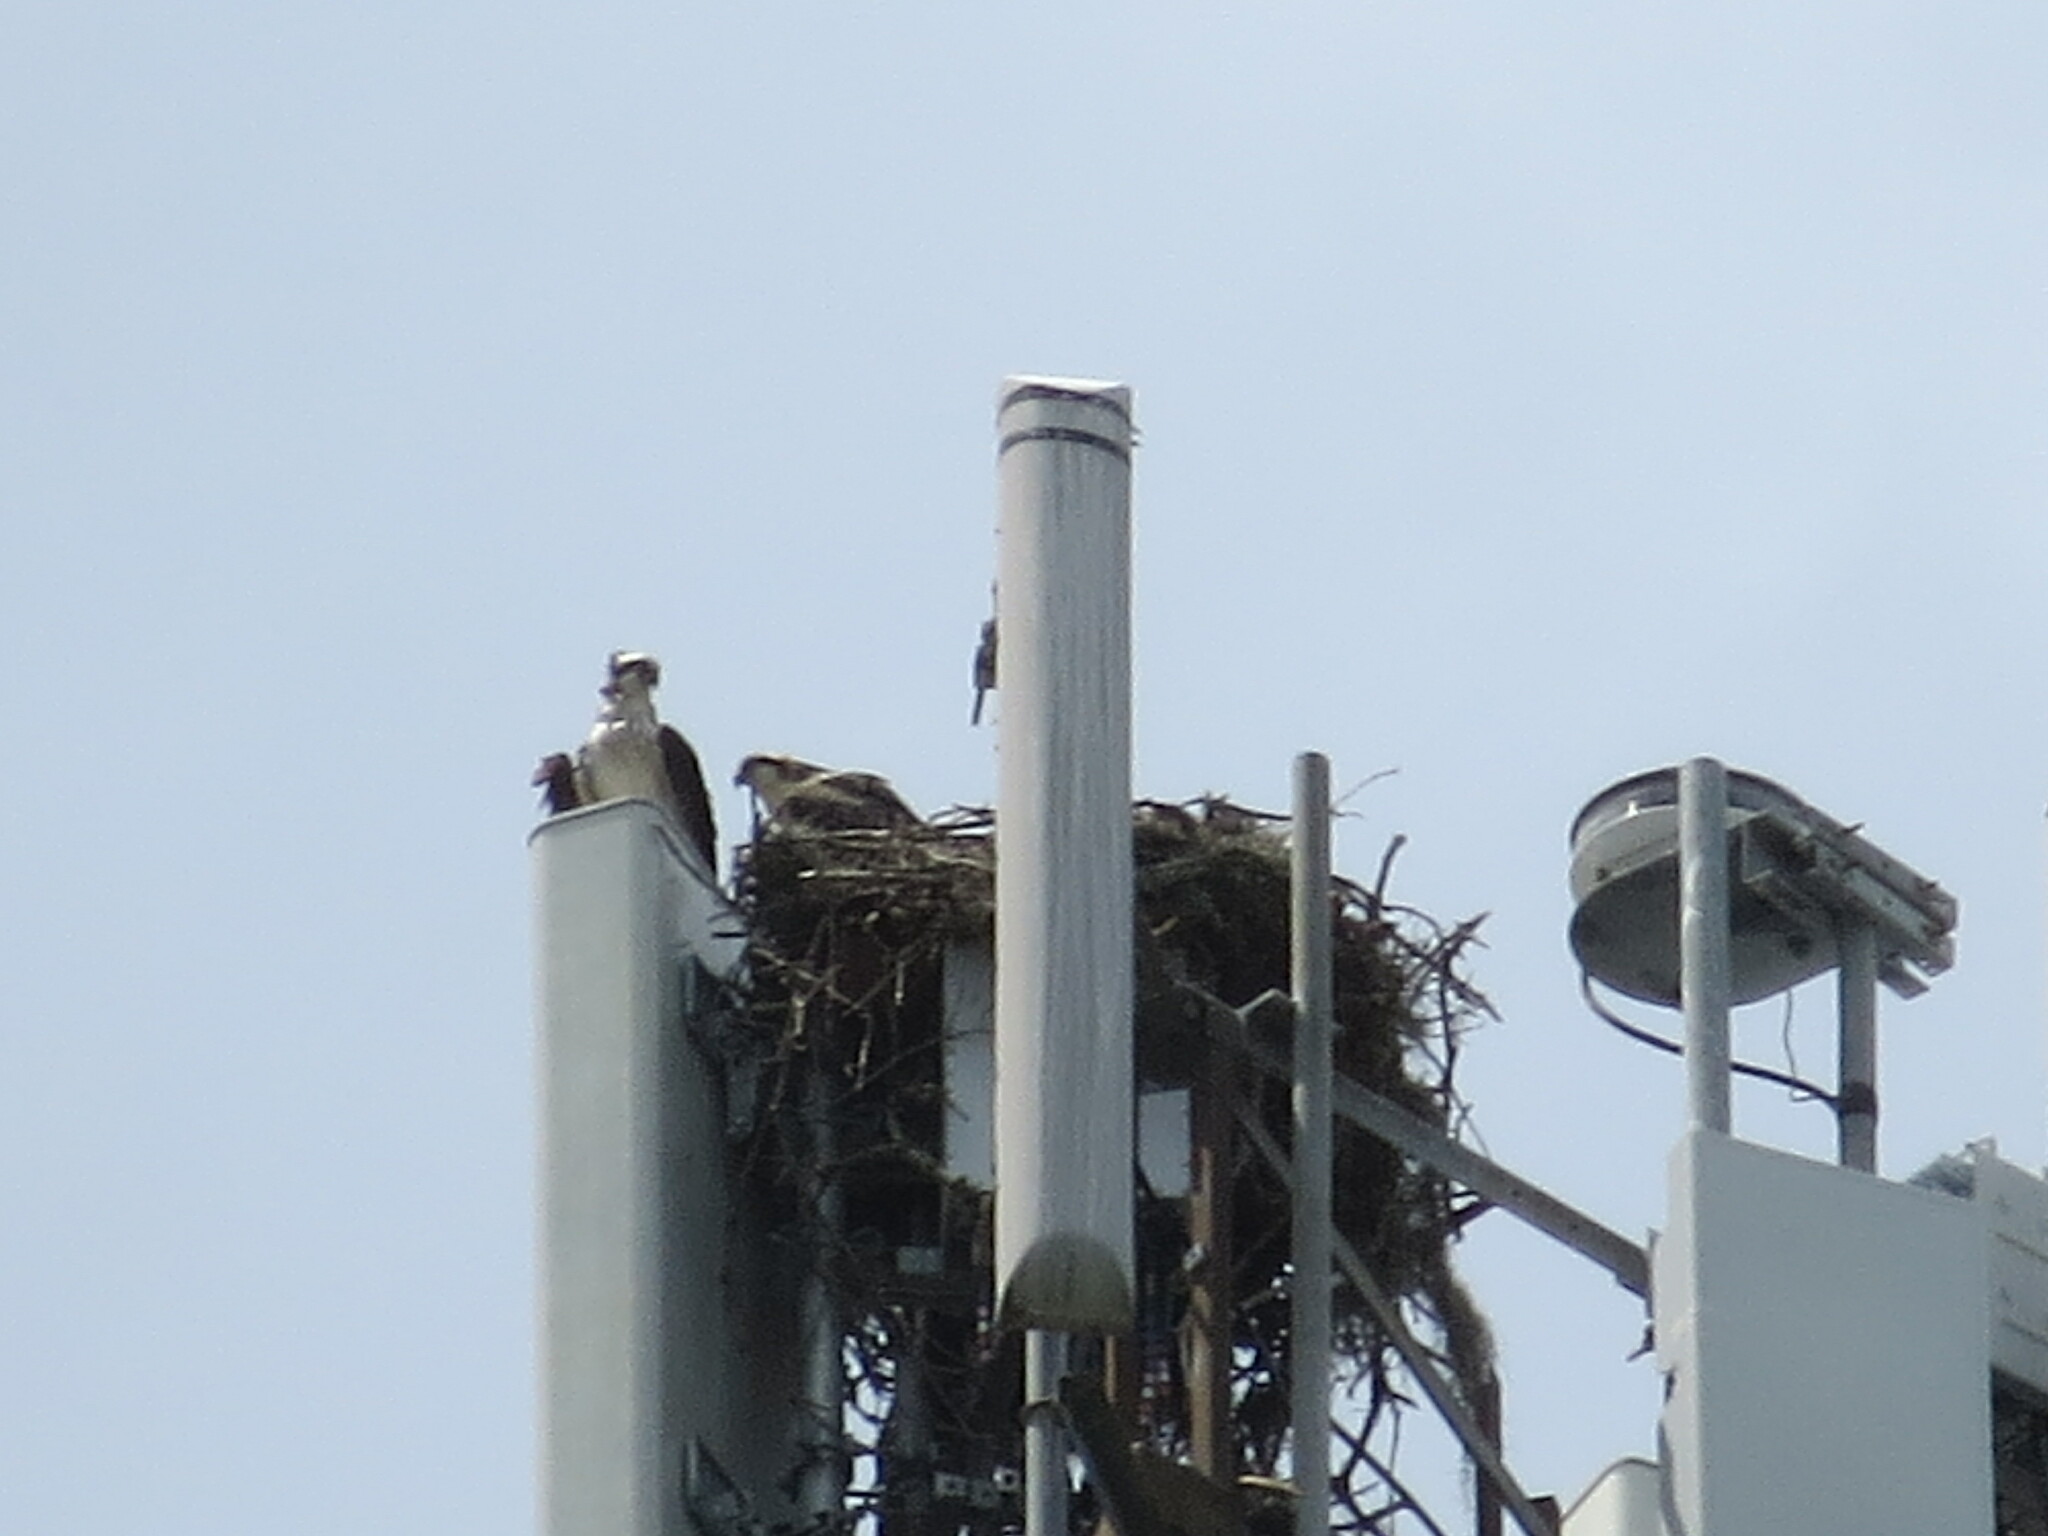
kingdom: Animalia
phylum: Chordata
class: Aves
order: Accipitriformes
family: Pandionidae
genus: Pandion
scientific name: Pandion haliaetus
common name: Osprey
